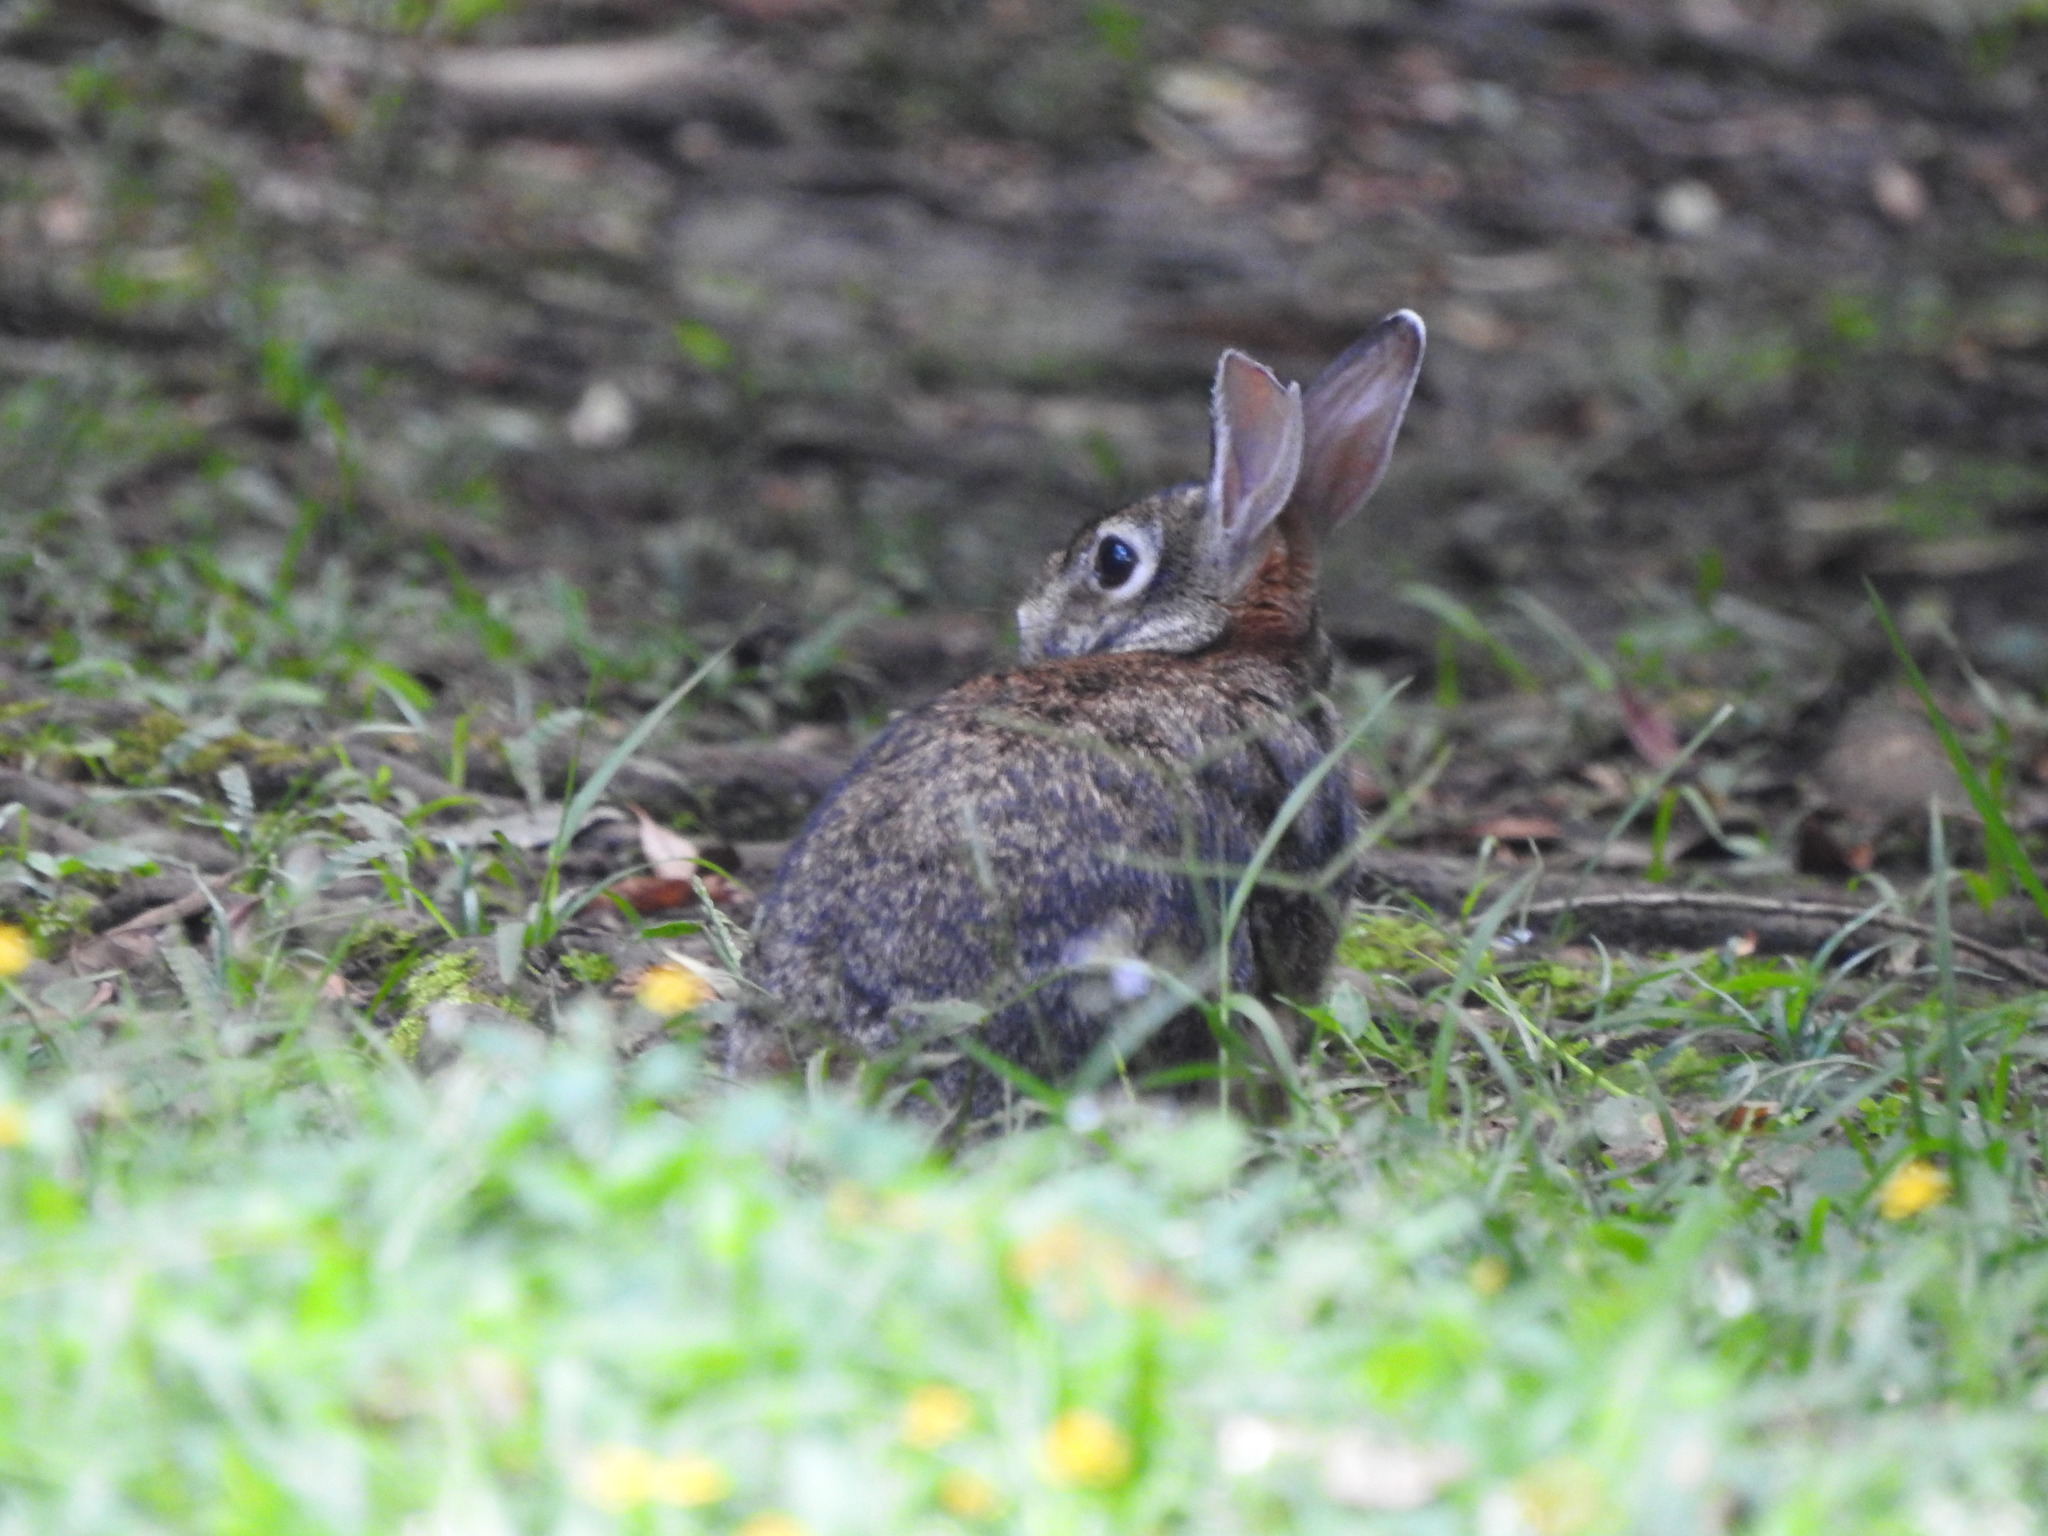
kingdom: Animalia
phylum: Chordata
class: Mammalia
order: Lagomorpha
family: Leporidae
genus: Sylvilagus
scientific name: Sylvilagus floridanus
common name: Eastern cottontail
